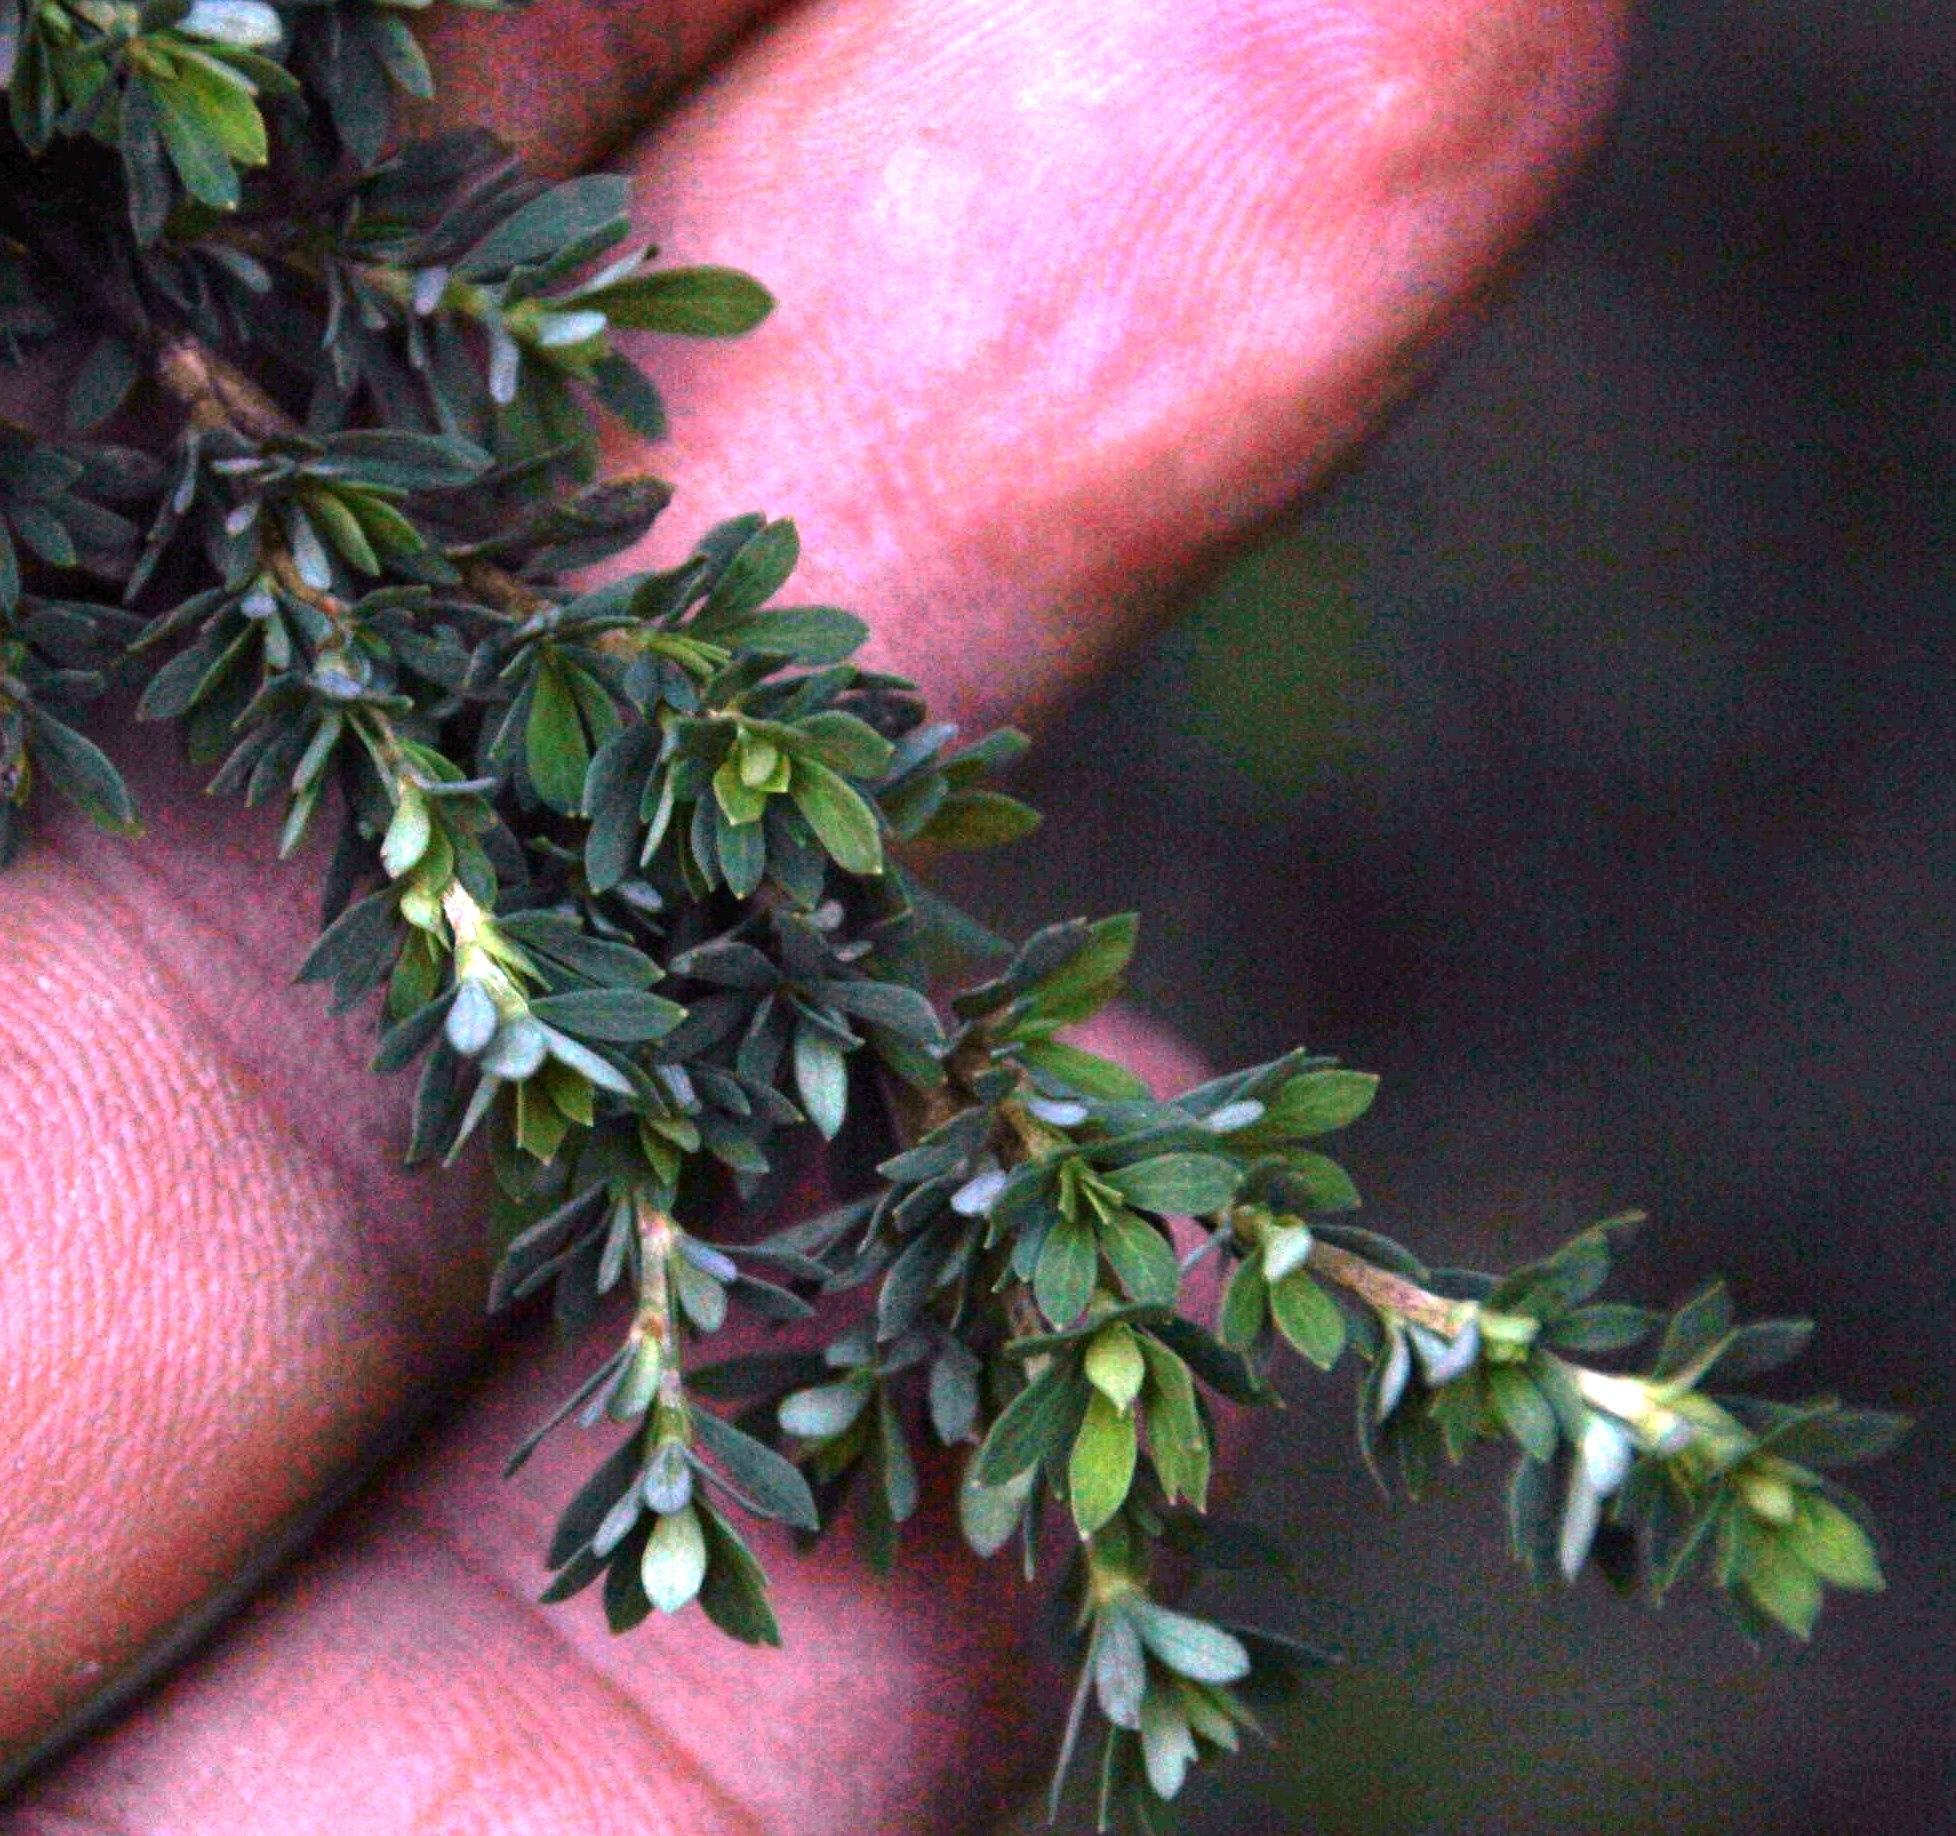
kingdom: Plantae
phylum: Tracheophyta
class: Magnoliopsida
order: Rosales
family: Rosaceae
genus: Cliffortia
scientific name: Cliffortia complanata
